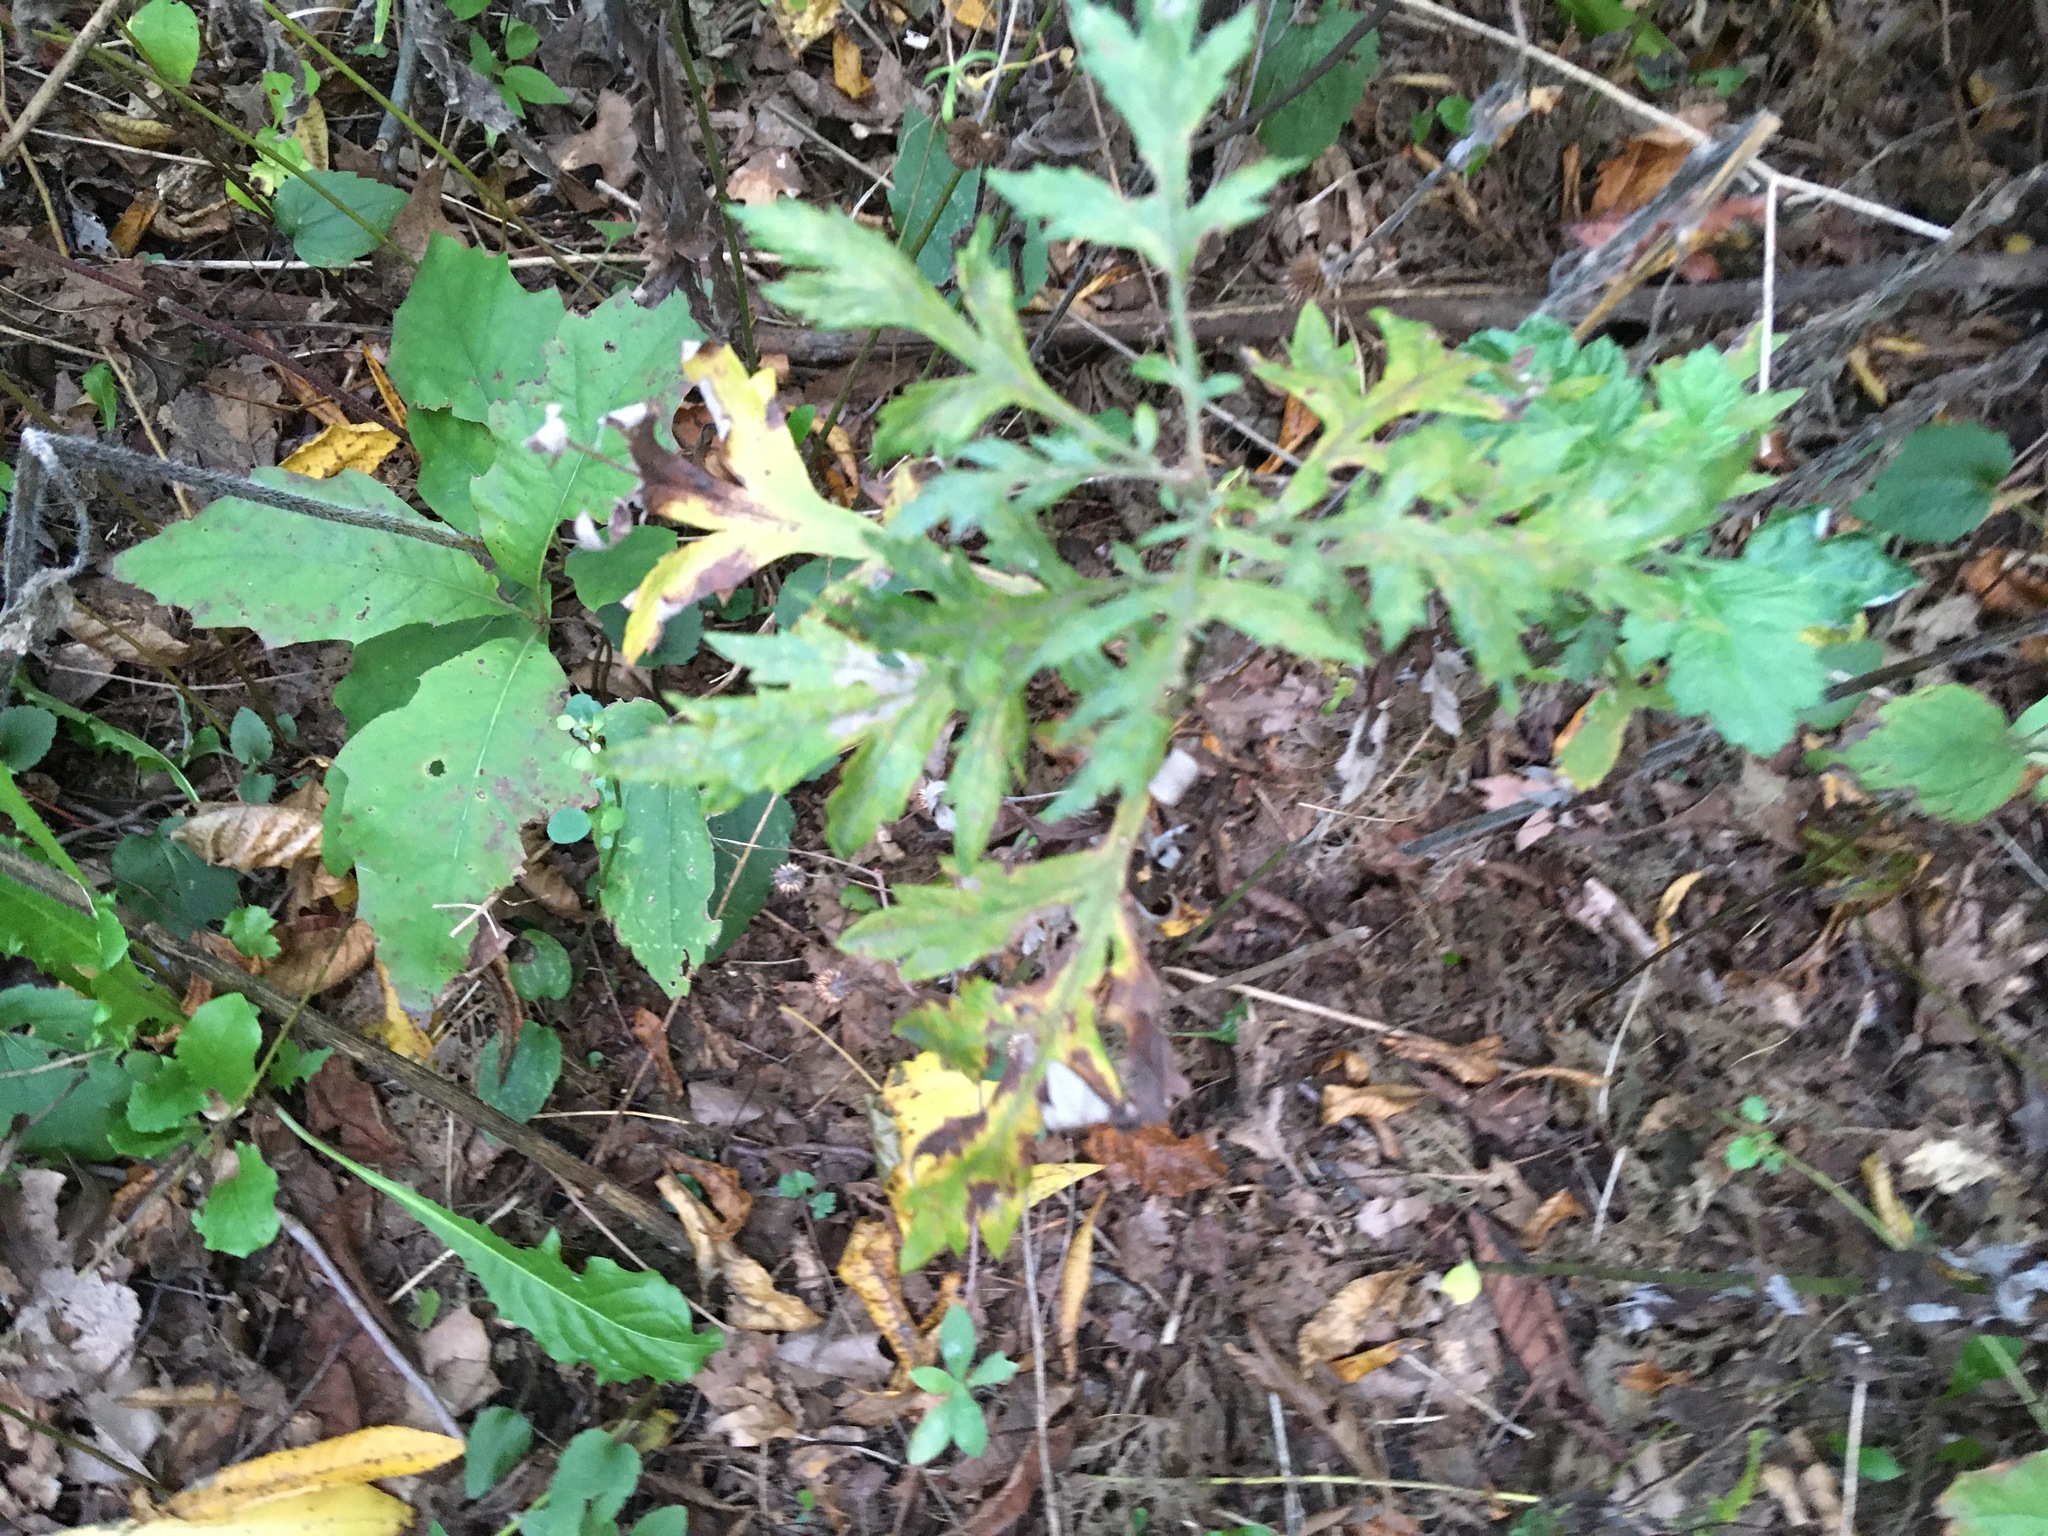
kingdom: Plantae
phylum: Tracheophyta
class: Magnoliopsida
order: Asterales
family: Asteraceae
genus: Artemisia
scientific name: Artemisia vulgaris
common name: Mugwort
